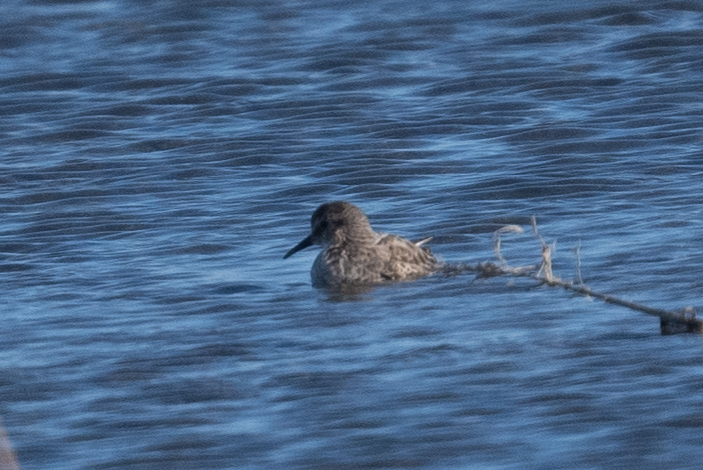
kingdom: Animalia
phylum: Chordata
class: Aves
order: Charadriiformes
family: Scolopacidae
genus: Calidris
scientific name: Calidris minutilla
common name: Least sandpiper
